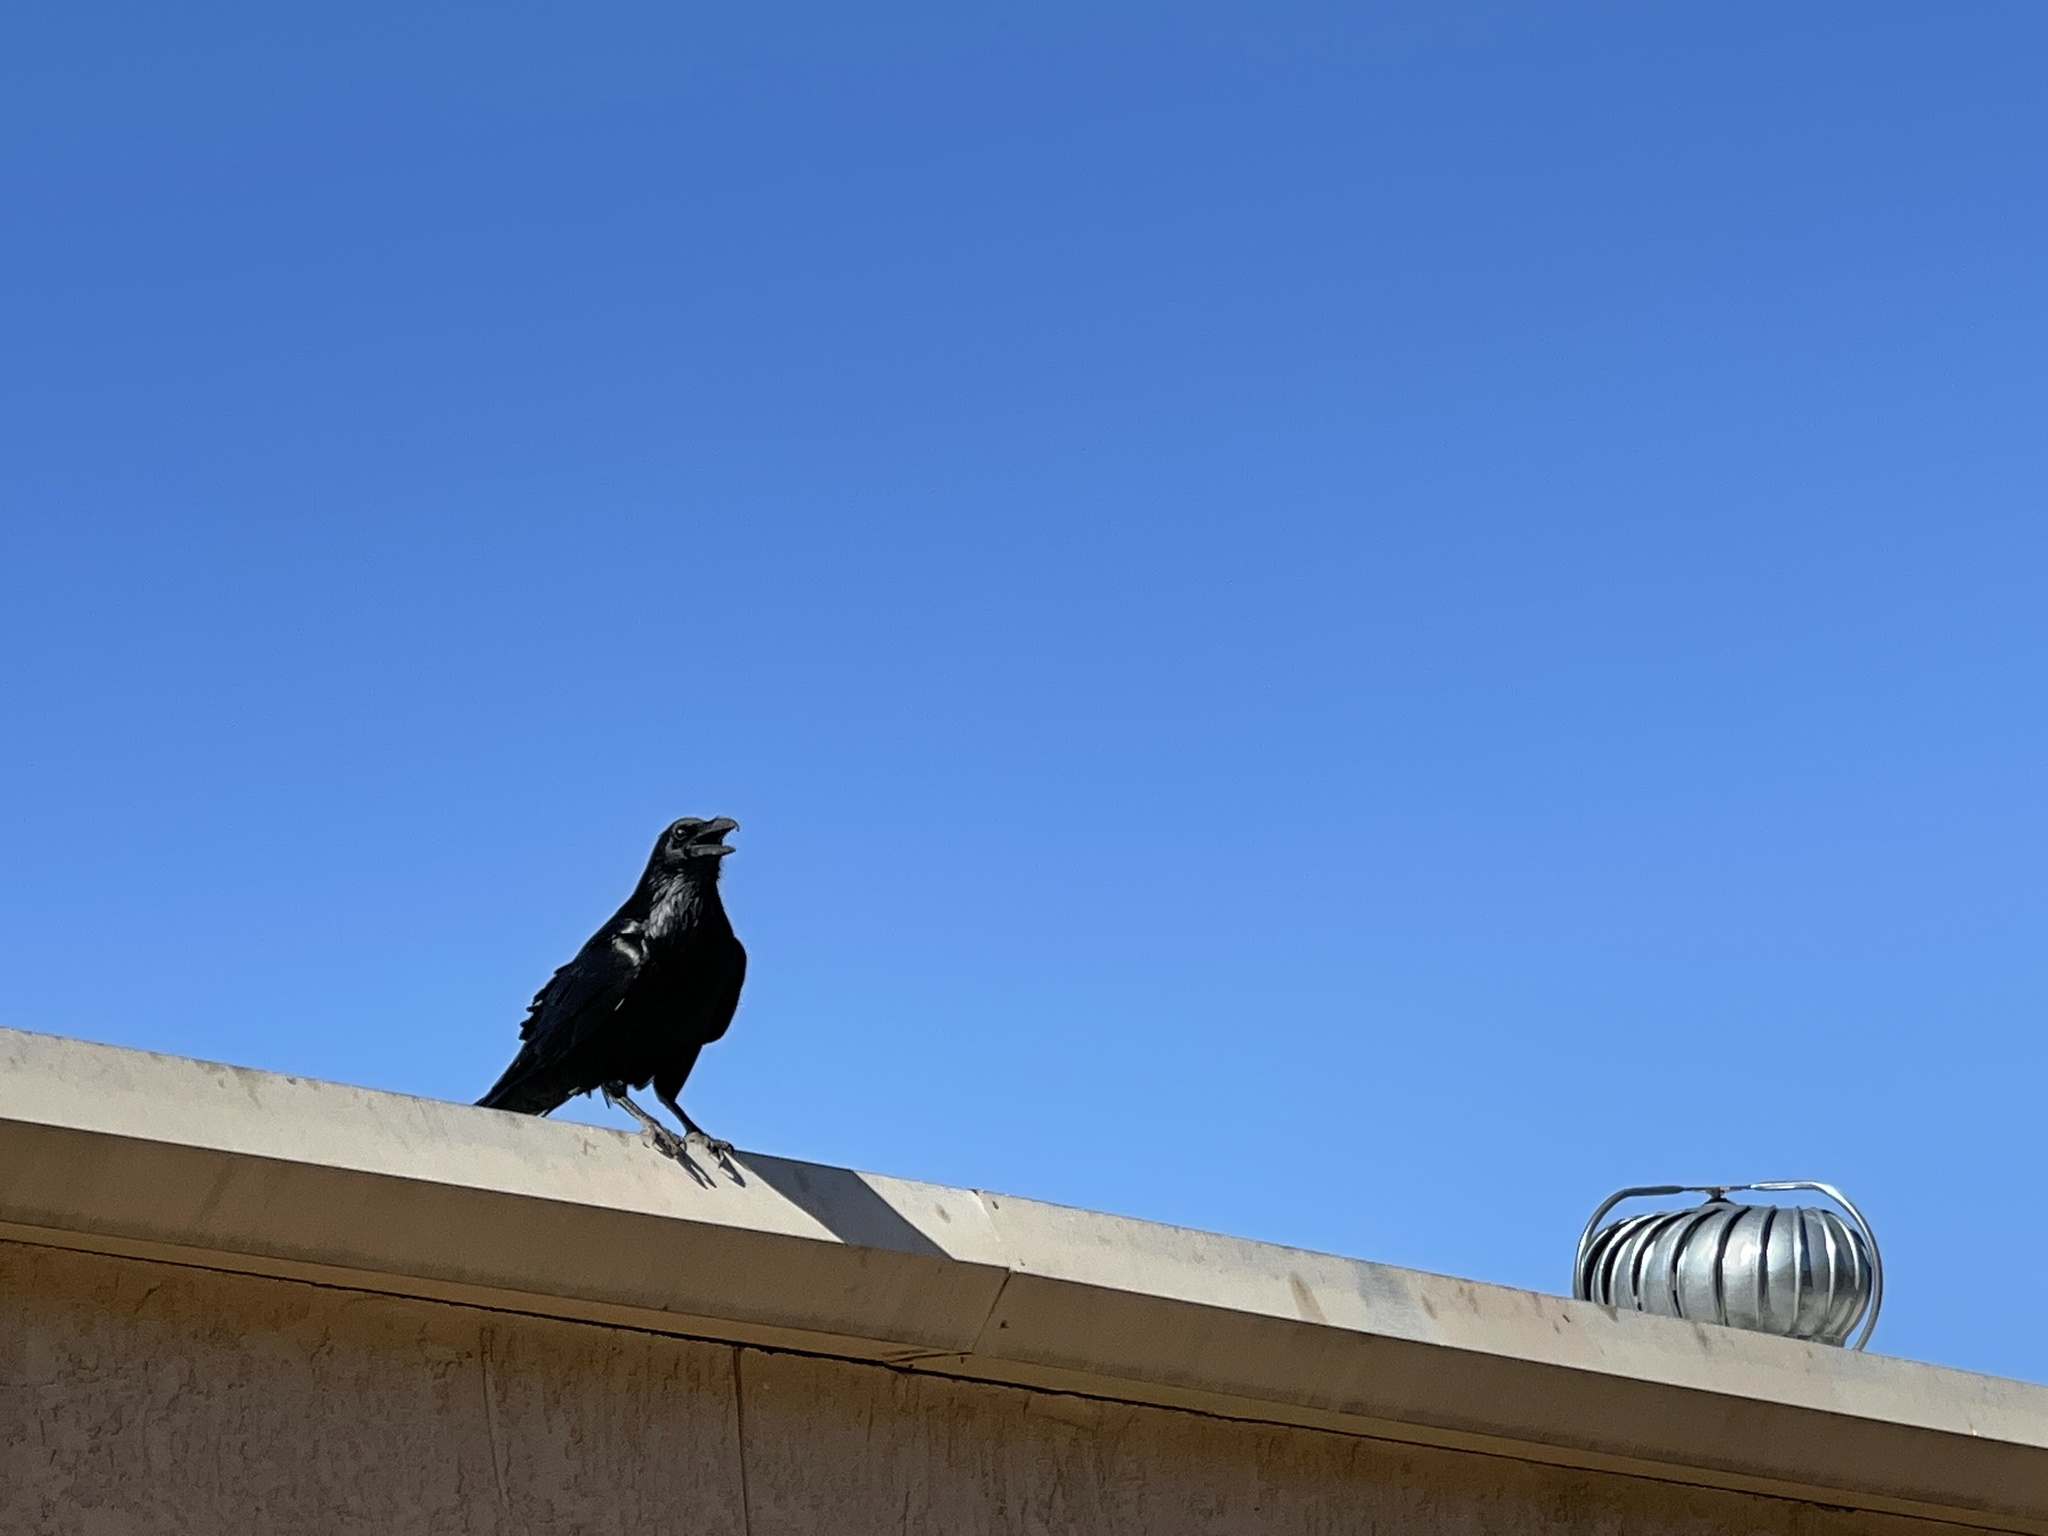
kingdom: Animalia
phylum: Chordata
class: Aves
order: Passeriformes
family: Corvidae
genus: Corvus
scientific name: Corvus corax
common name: Common raven
